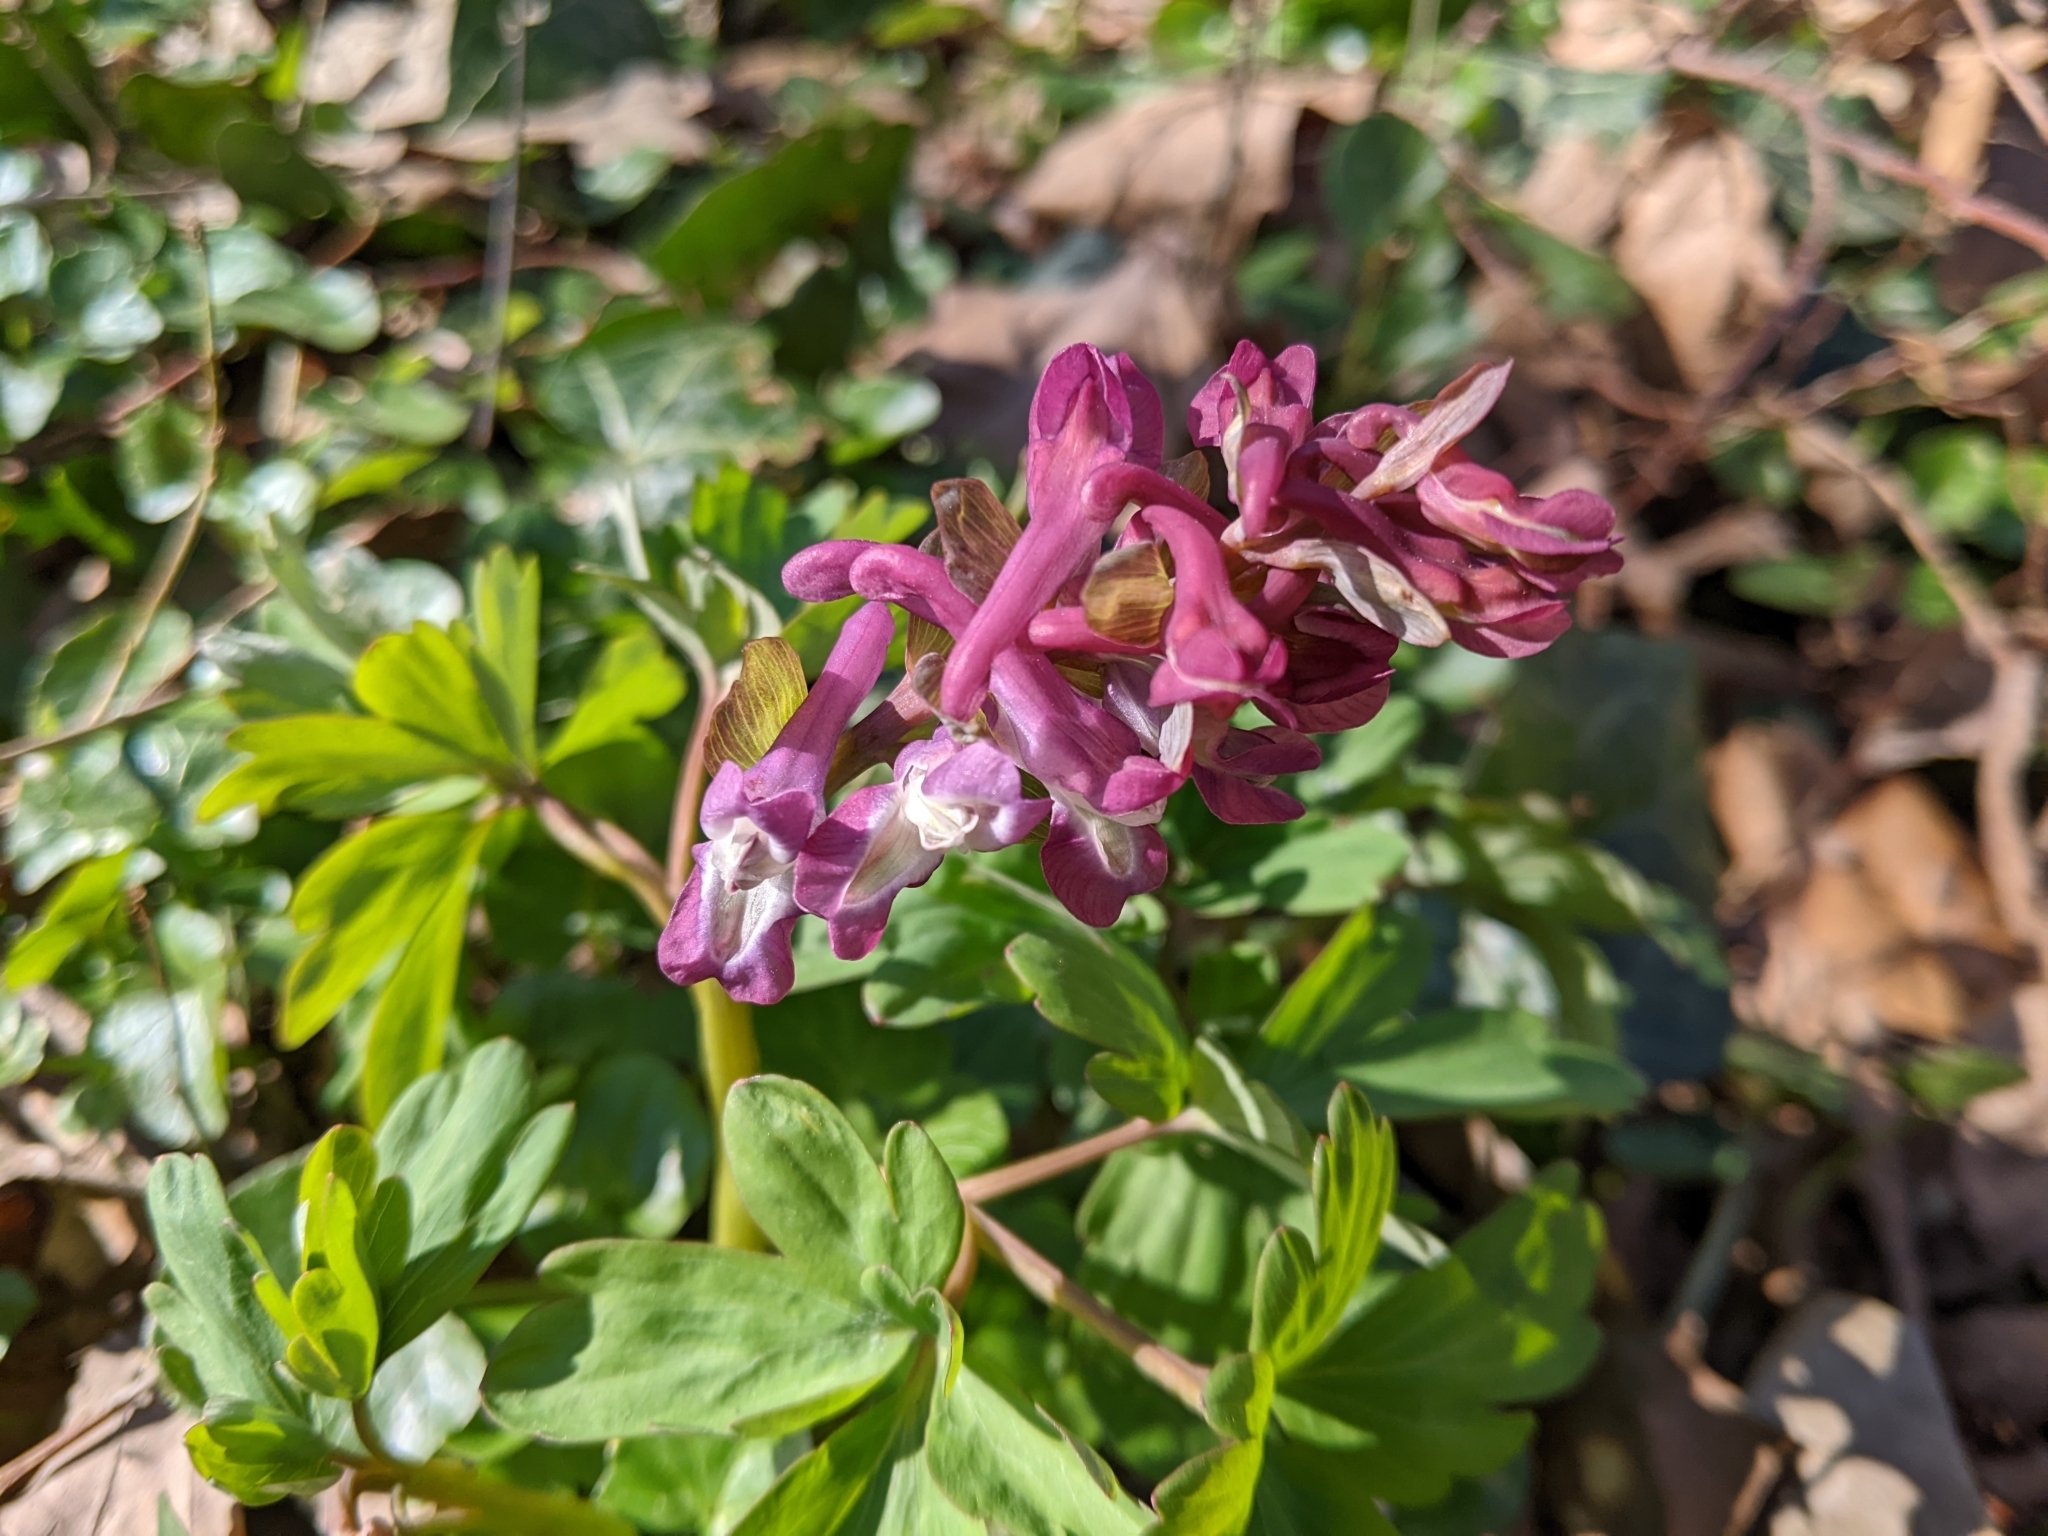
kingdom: Plantae
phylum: Tracheophyta
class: Magnoliopsida
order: Ranunculales
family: Papaveraceae
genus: Corydalis
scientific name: Corydalis cava
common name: Hollowroot
